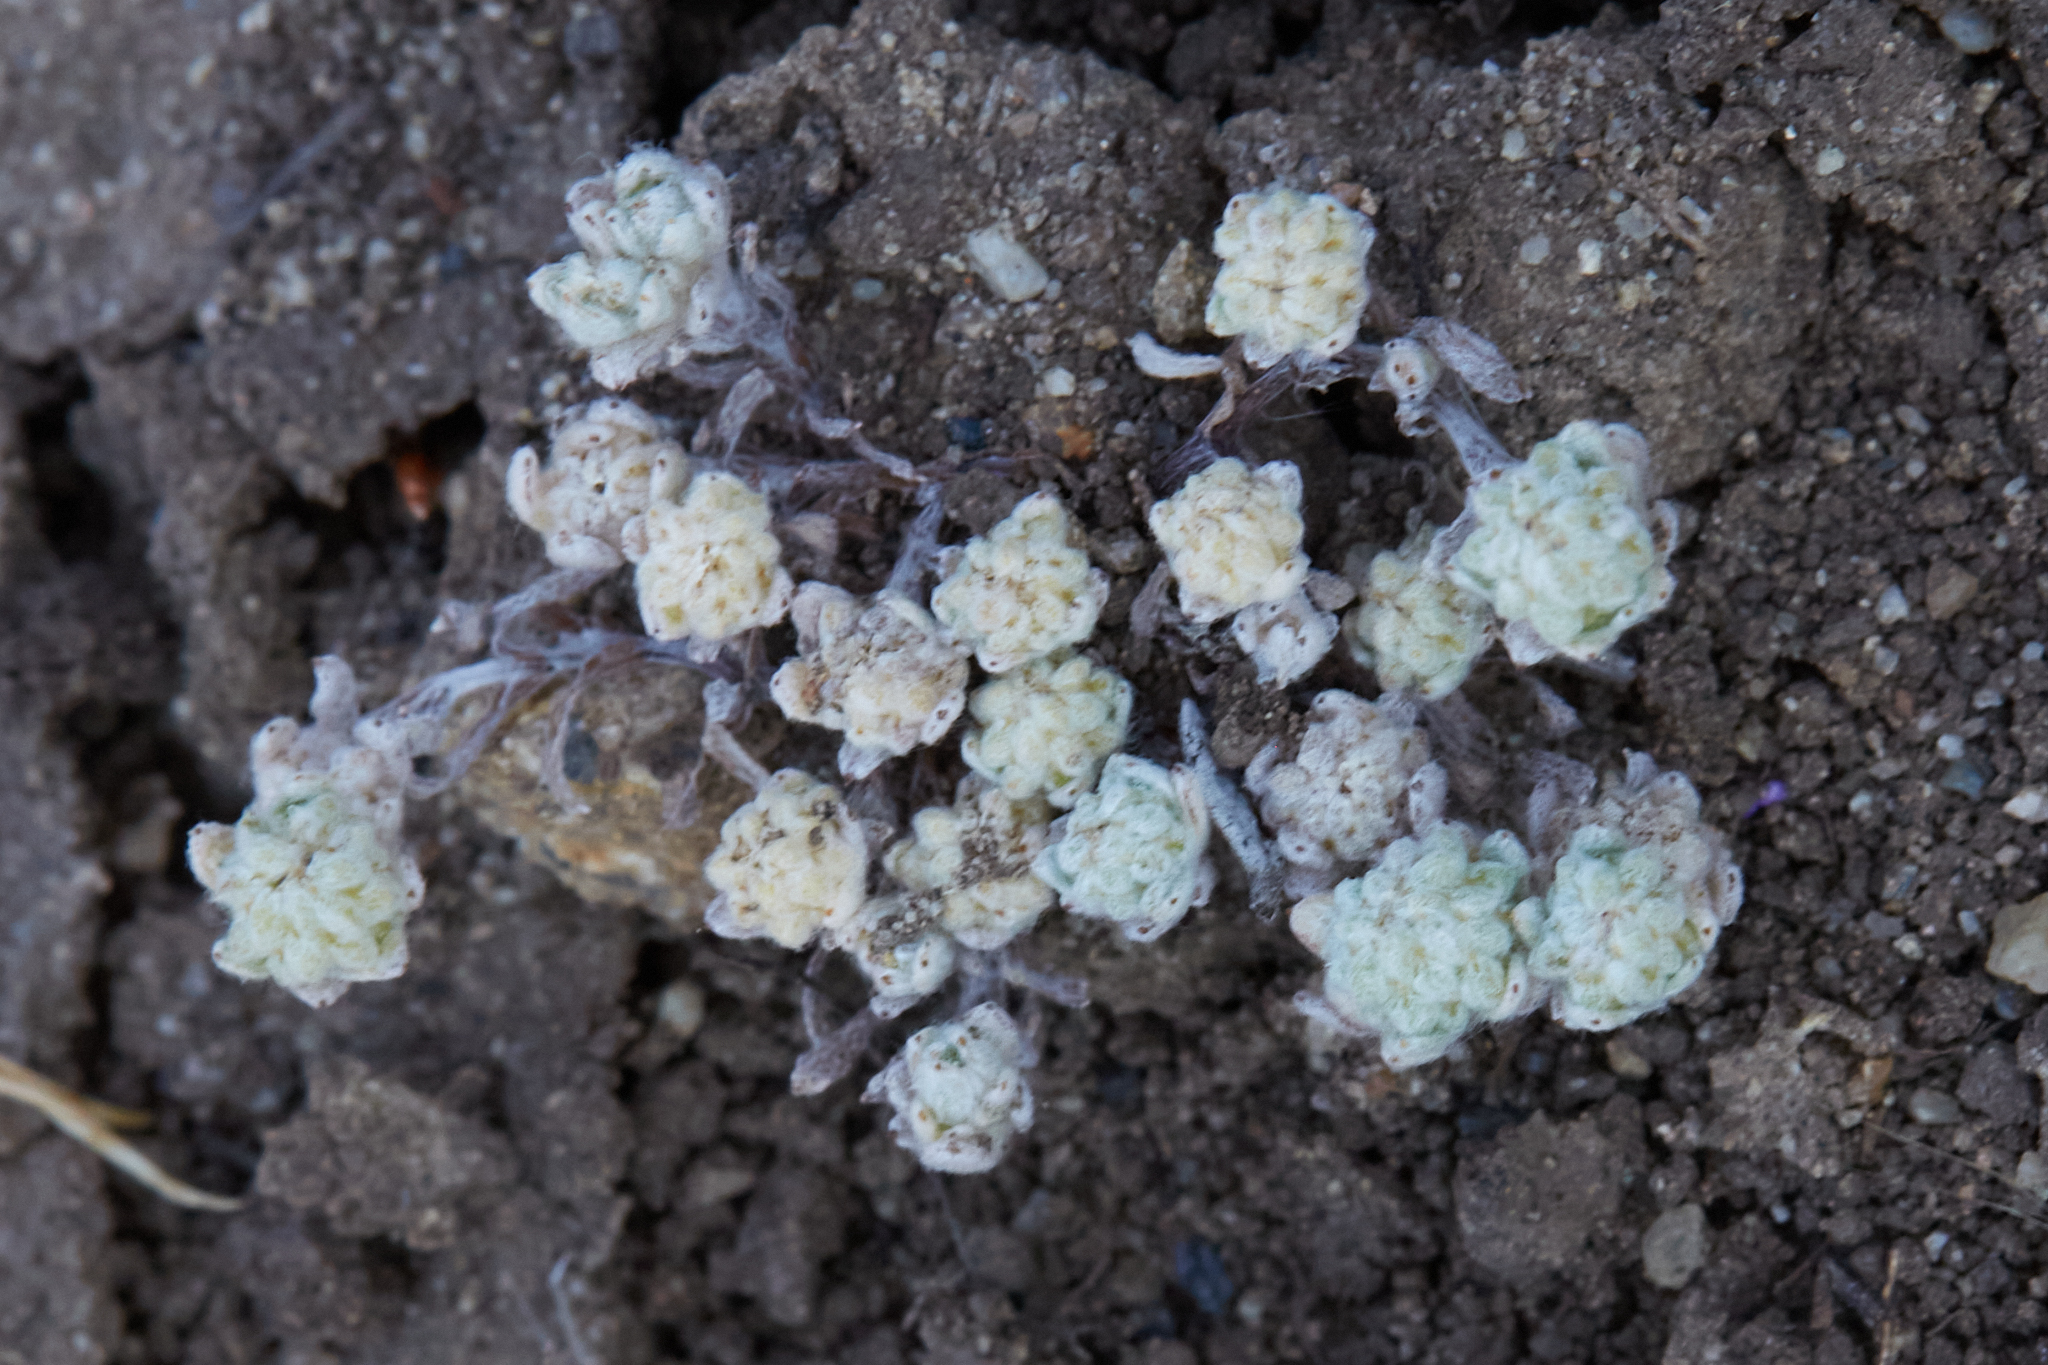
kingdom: Plantae
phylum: Tracheophyta
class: Magnoliopsida
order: Asterales
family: Asteraceae
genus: Psilocarphus
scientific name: Psilocarphus tenellus
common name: Slender woolly-marbles
